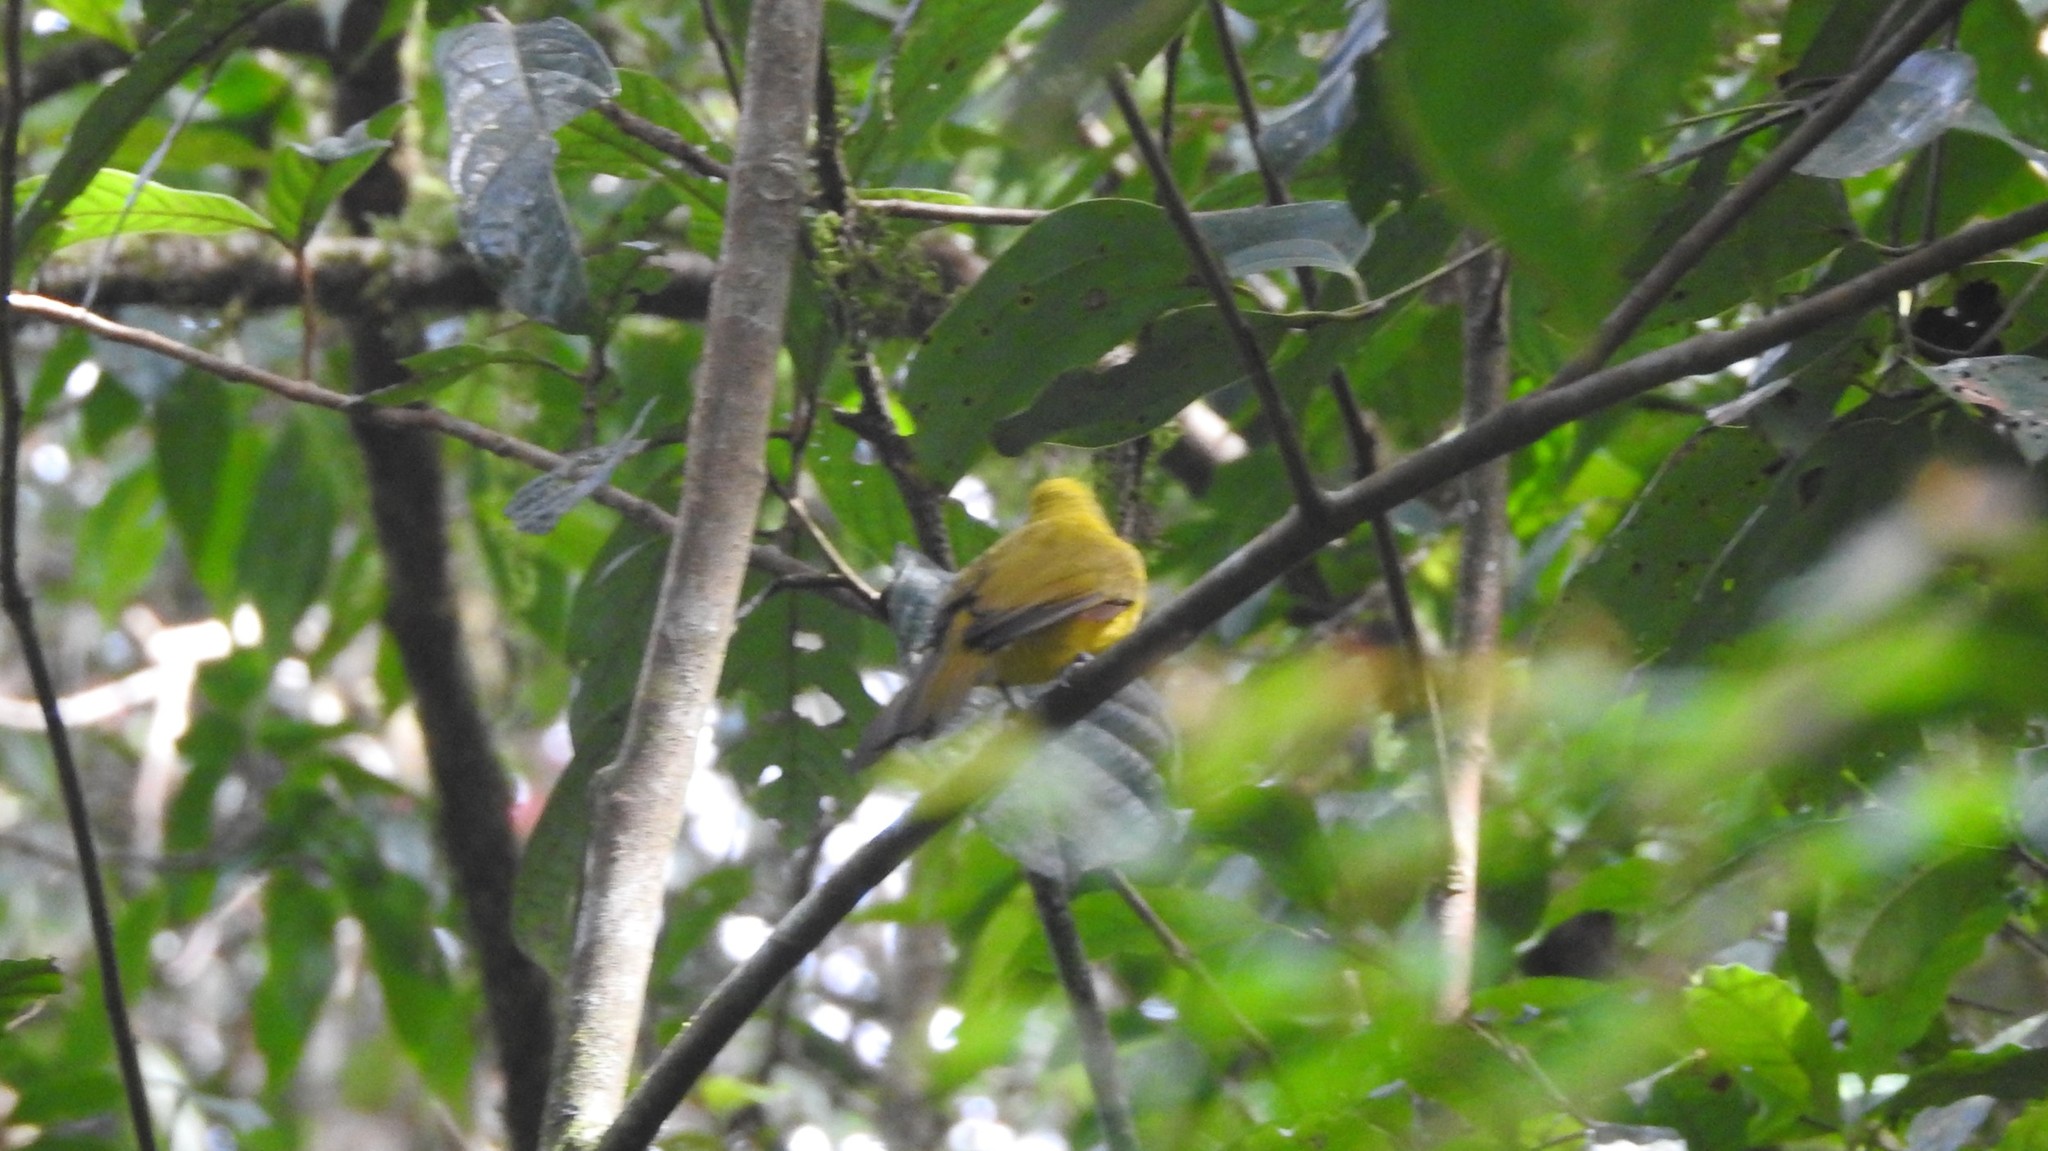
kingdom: Animalia
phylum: Chordata
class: Aves
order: Passeriformes
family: Pycnonotidae
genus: Acritillas
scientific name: Acritillas indica
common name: Yellow-browed bulbul
